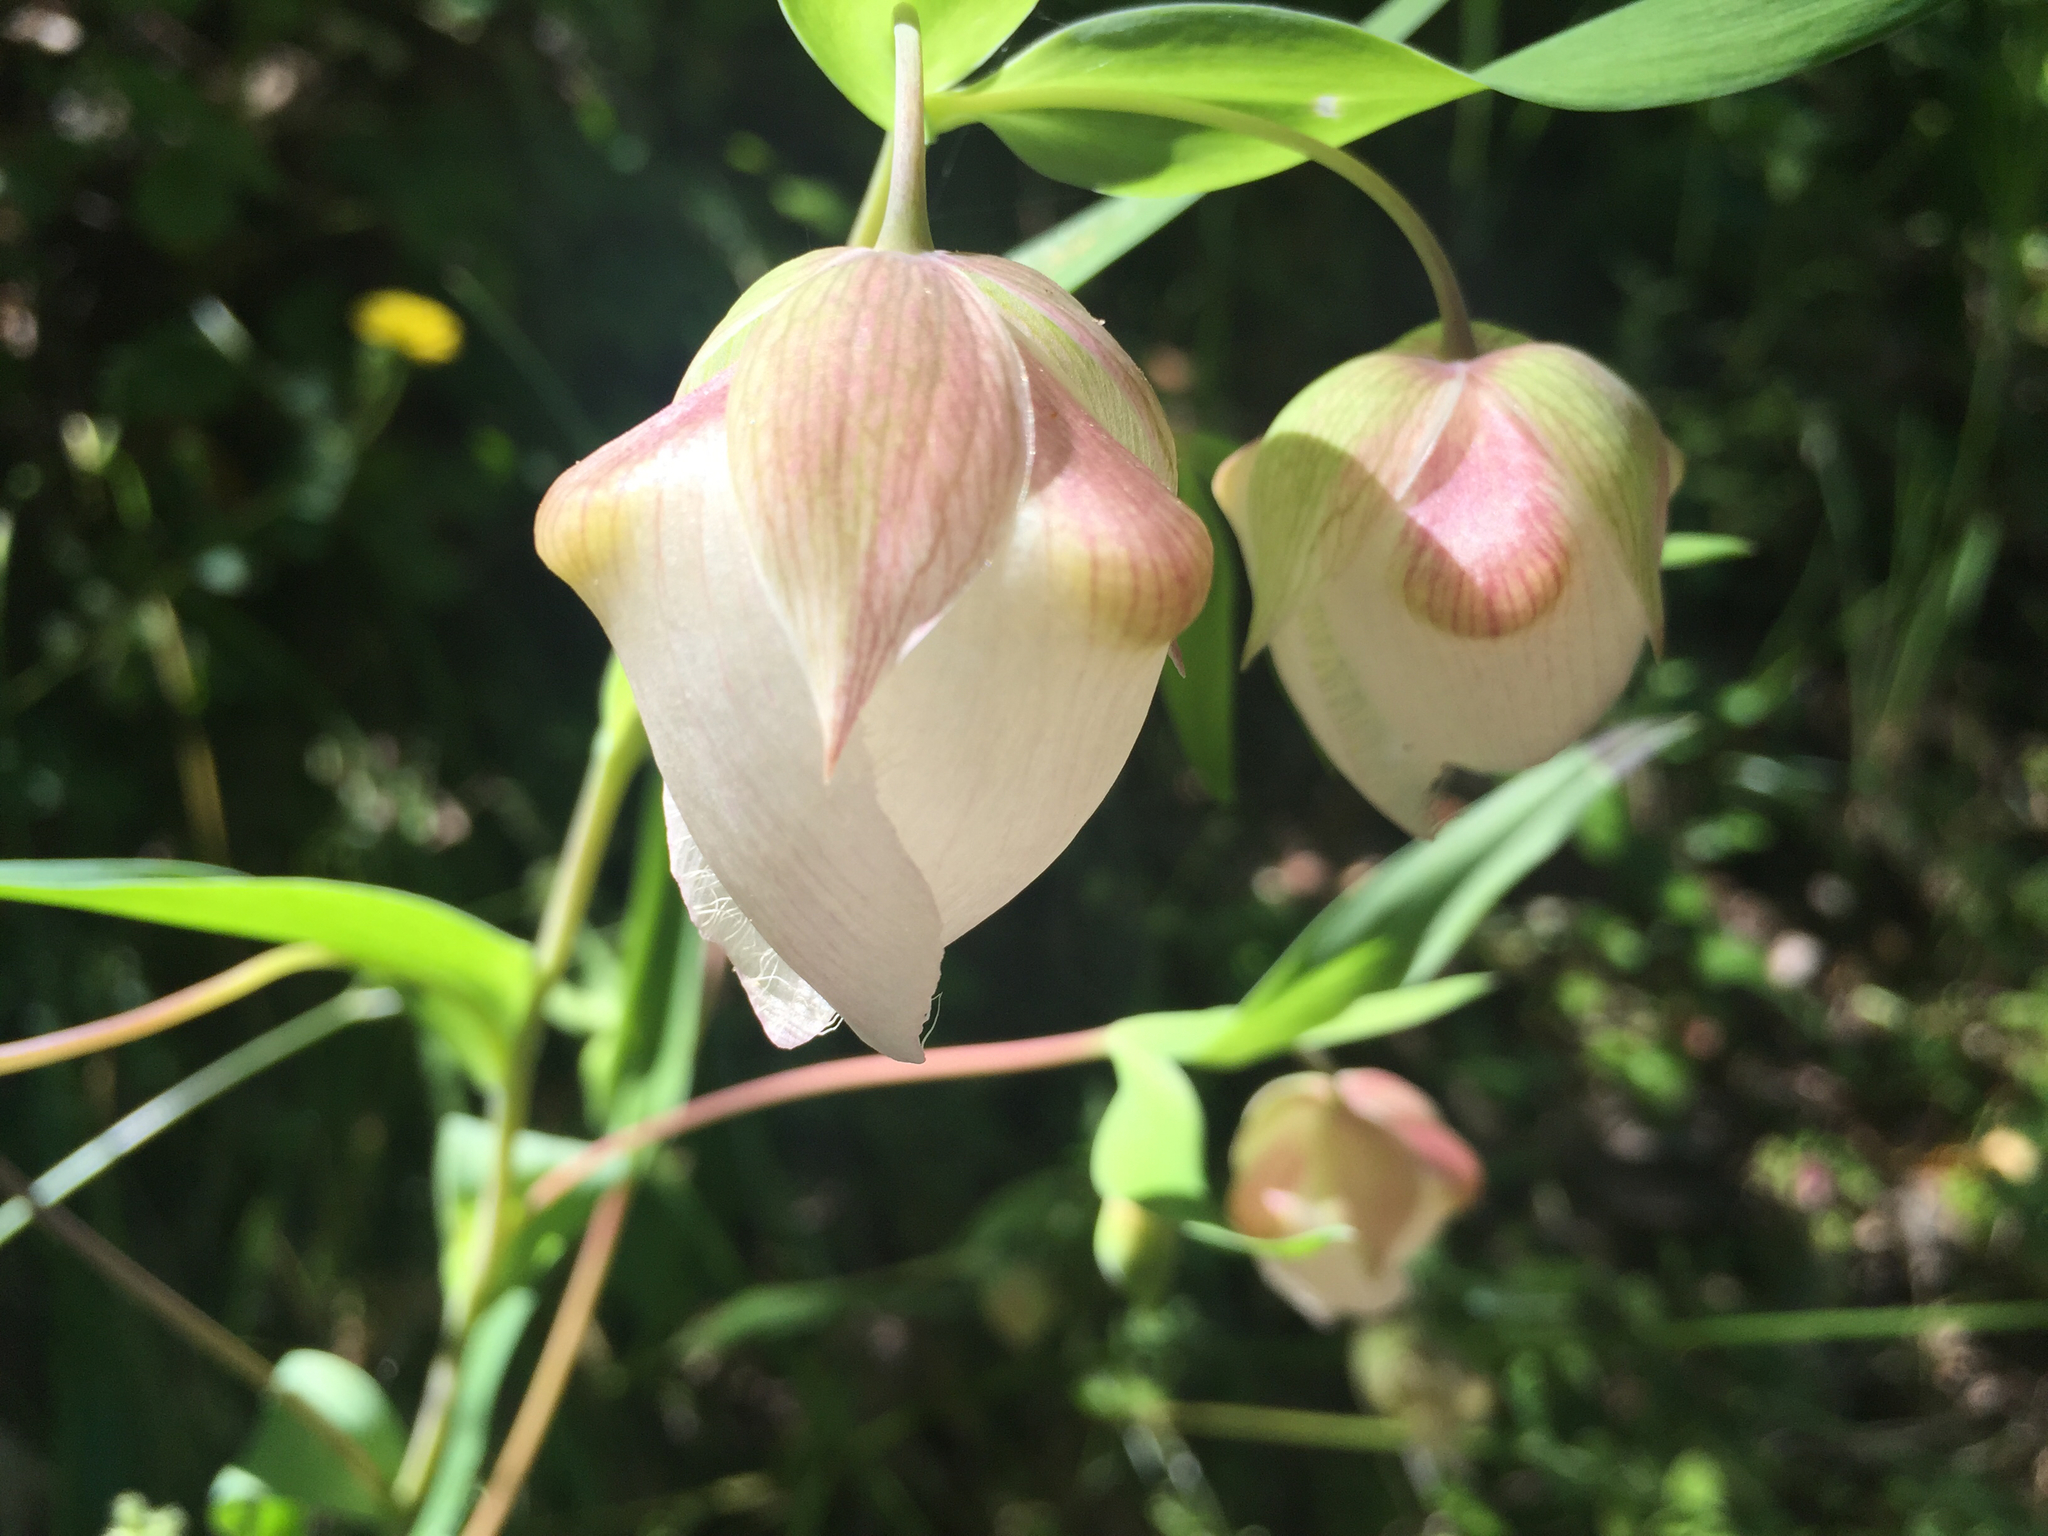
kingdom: Plantae
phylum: Tracheophyta
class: Liliopsida
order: Liliales
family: Liliaceae
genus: Calochortus
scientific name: Calochortus albus
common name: Fairy-lantern
